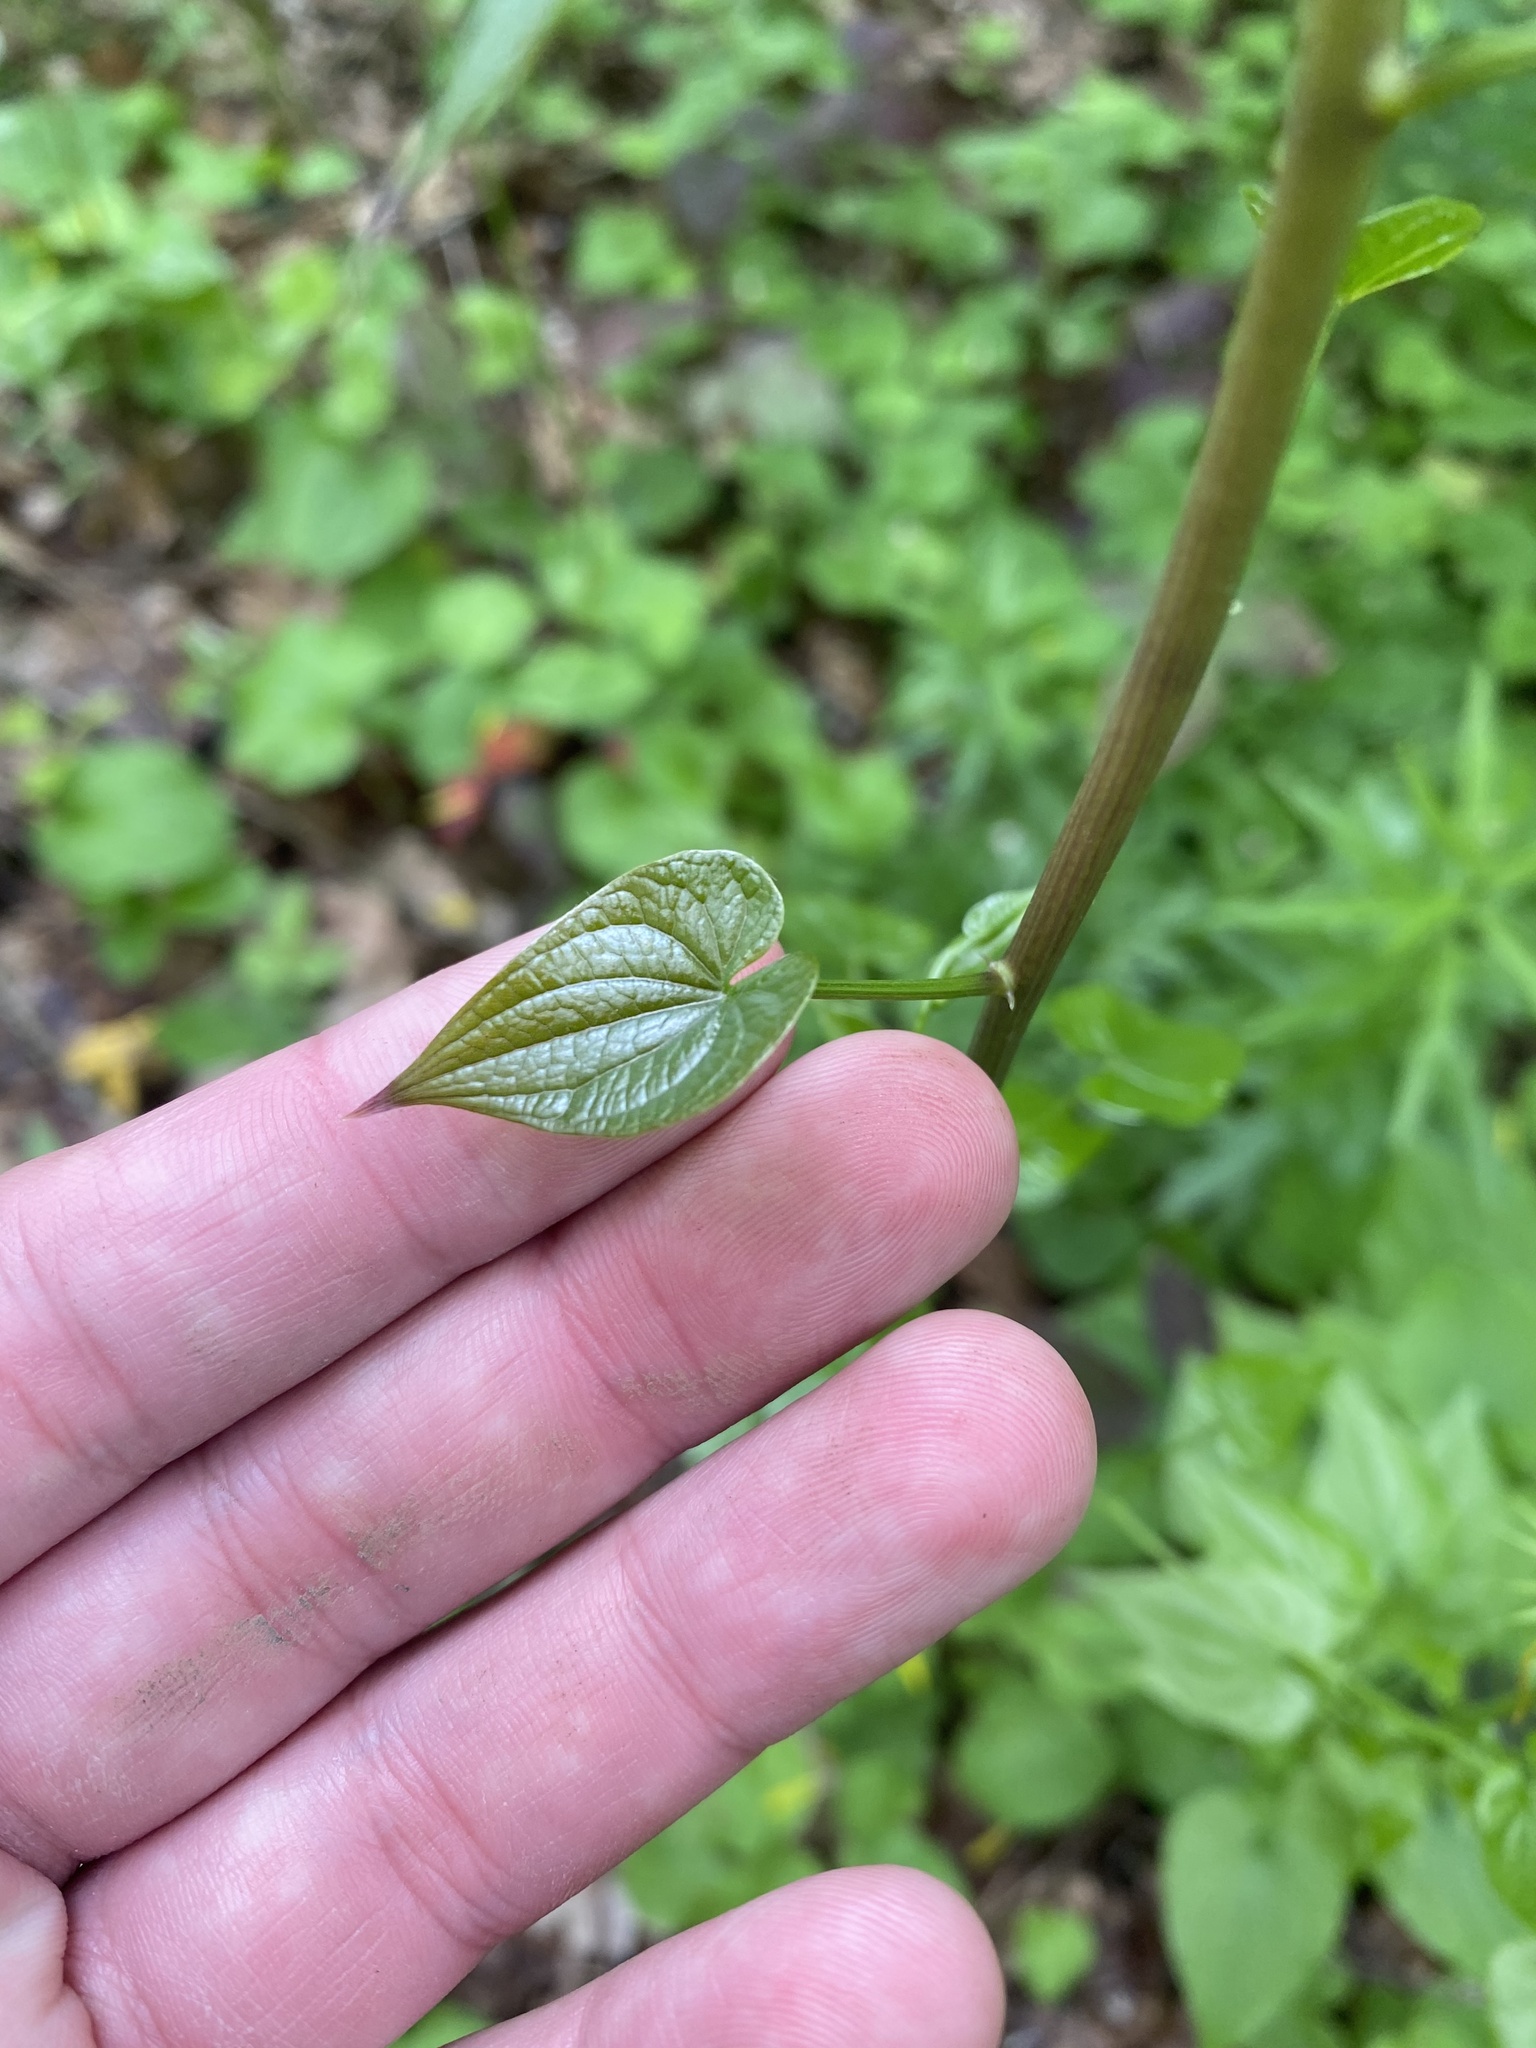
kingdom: Plantae
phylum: Tracheophyta
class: Liliopsida
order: Dioscoreales
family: Dioscoreaceae
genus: Dioscorea
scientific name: Dioscorea communis
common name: Black-bindweed
